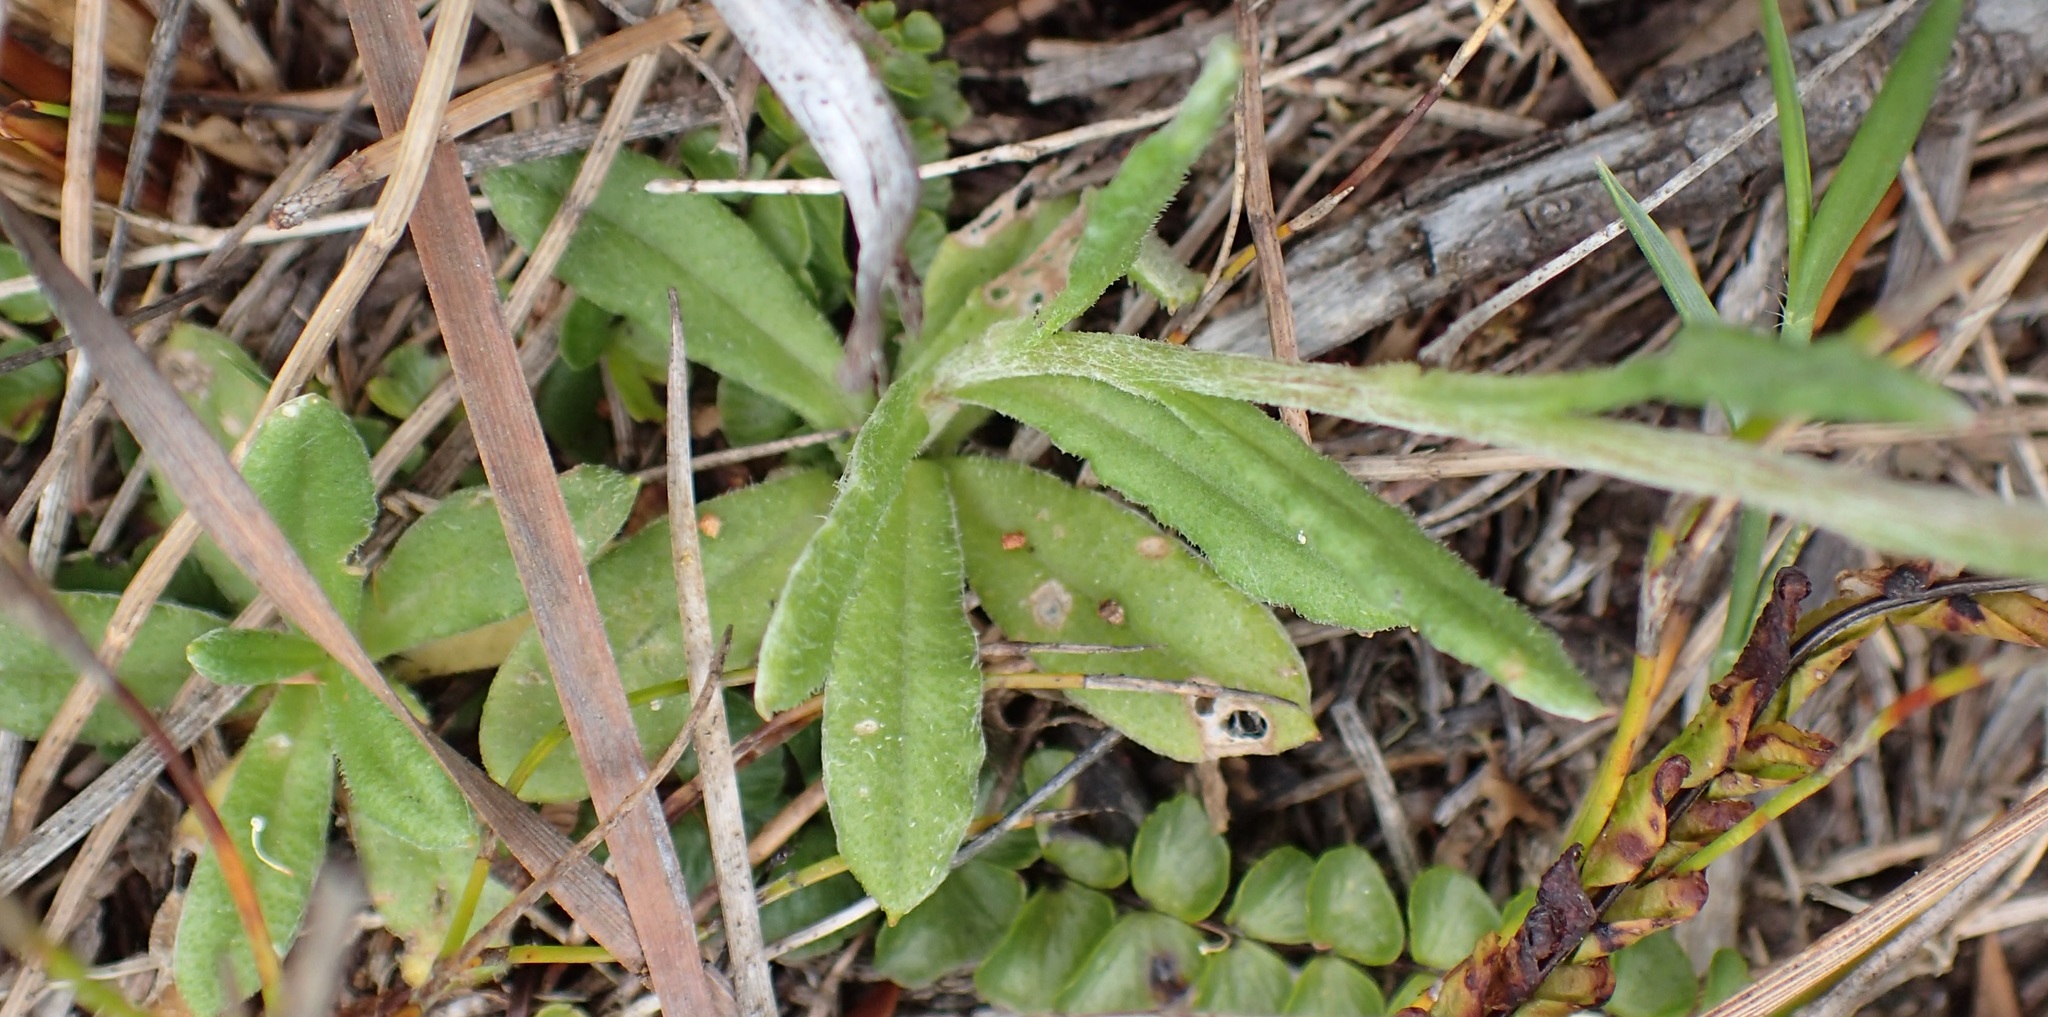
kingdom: Plantae
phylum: Tracheophyta
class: Magnoliopsida
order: Asterales
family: Asteraceae
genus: Coronidium
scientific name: Coronidium scorpioides
